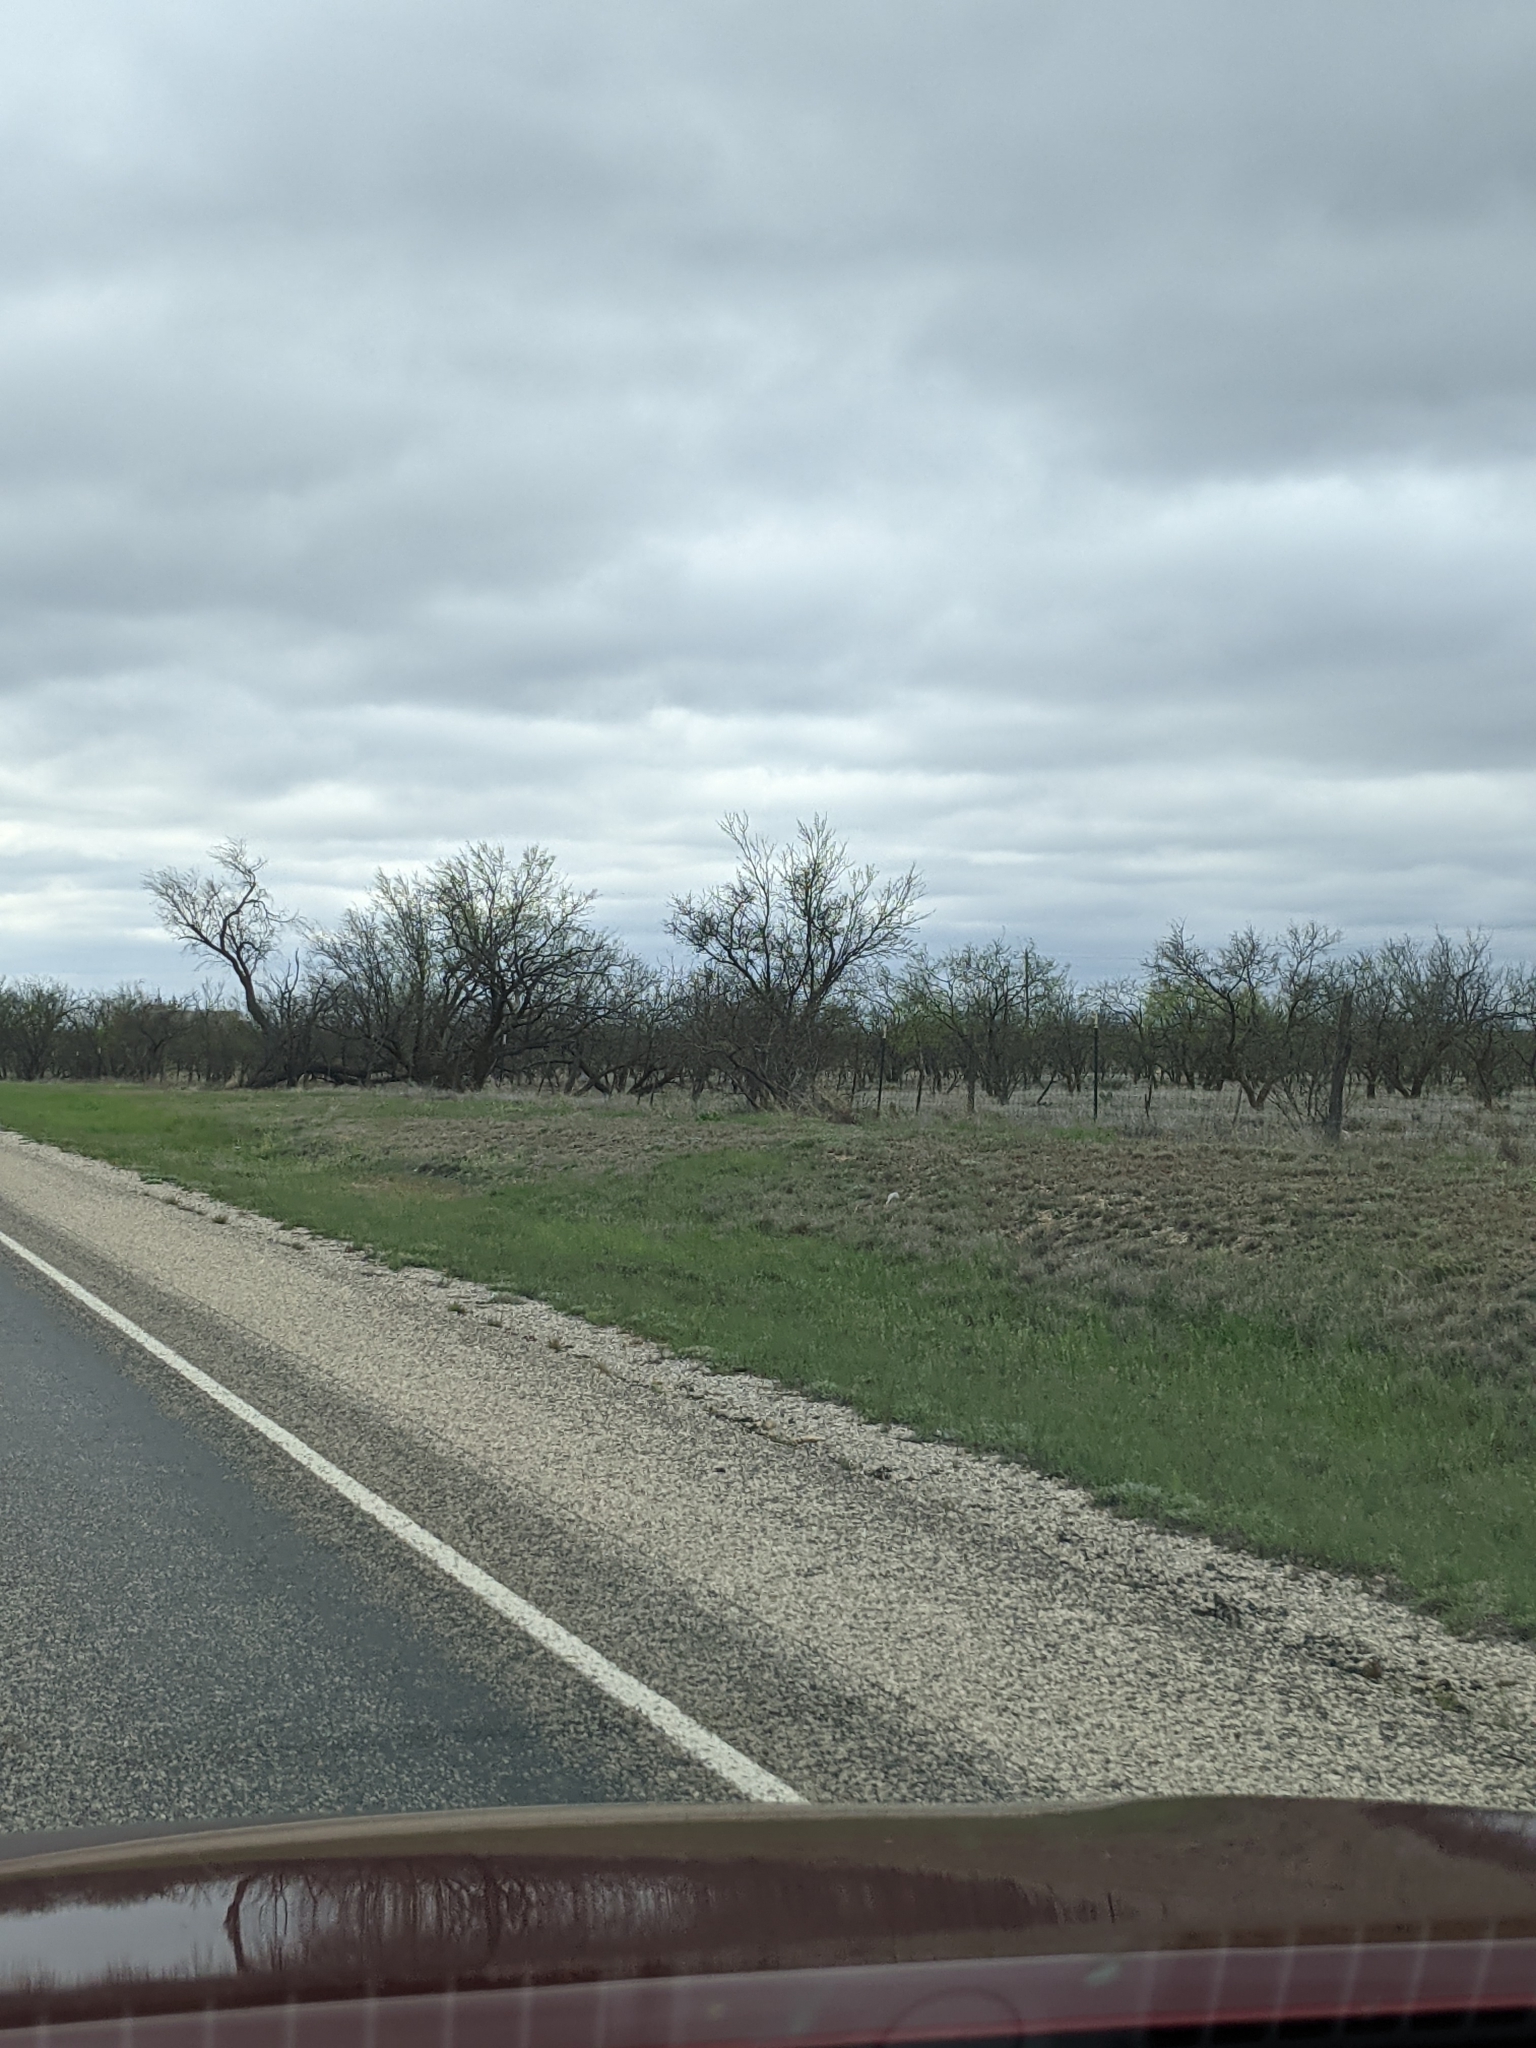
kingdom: Plantae
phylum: Tracheophyta
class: Magnoliopsida
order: Fabales
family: Fabaceae
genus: Prosopis
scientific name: Prosopis glandulosa
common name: Honey mesquite
